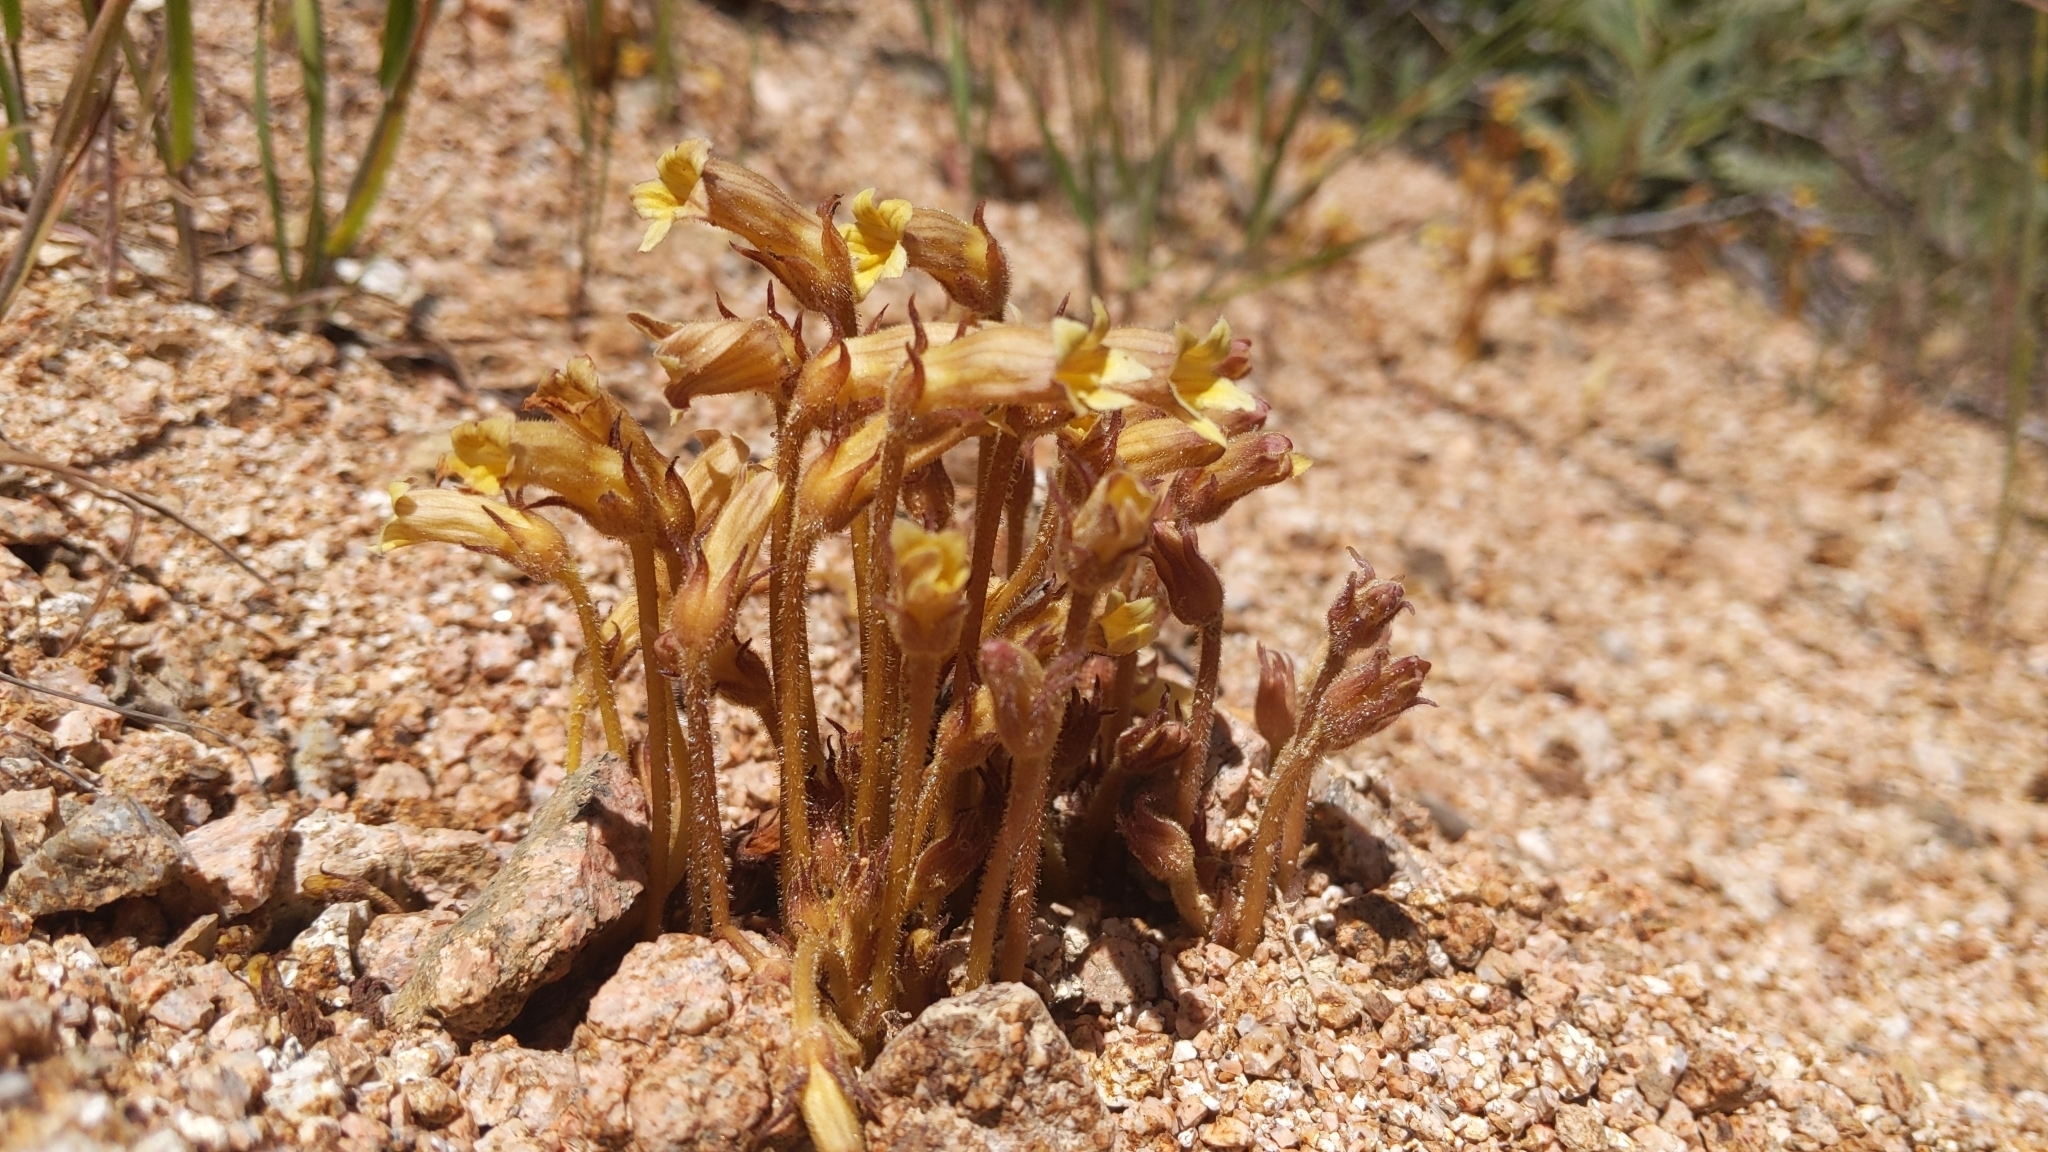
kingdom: Plantae
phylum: Tracheophyta
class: Magnoliopsida
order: Lamiales
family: Orobanchaceae
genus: Aphyllon
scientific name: Aphyllon franciscanum
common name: San francisco broomrape
